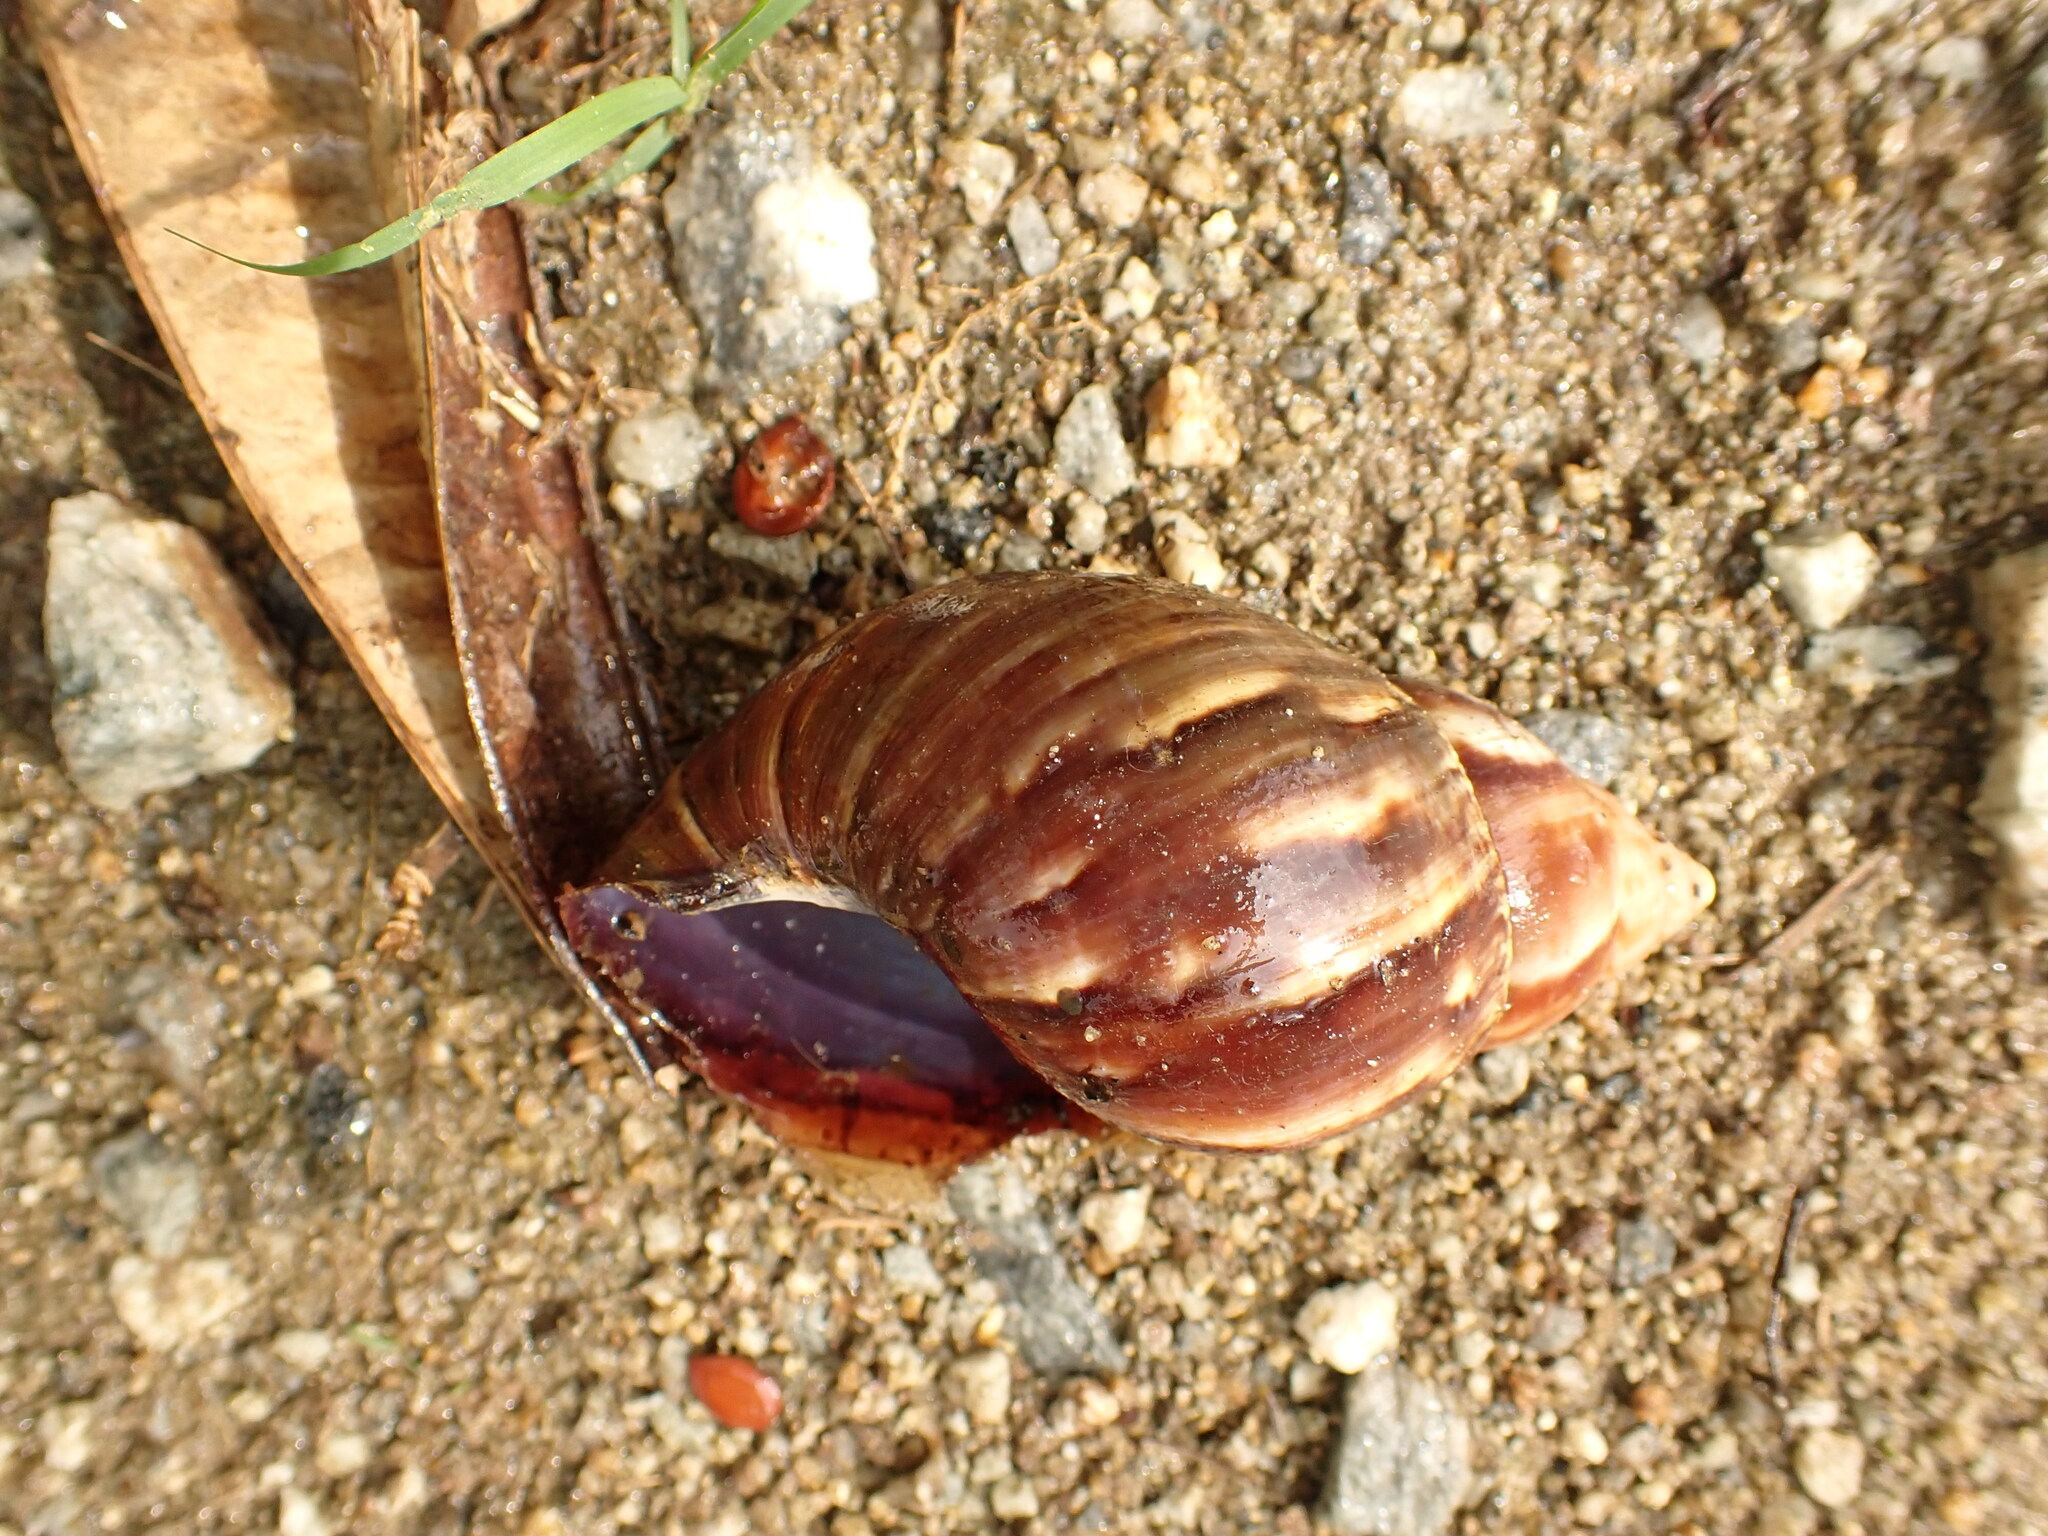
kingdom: Animalia
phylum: Mollusca
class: Gastropoda
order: Stylommatophora
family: Achatinidae
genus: Lissachatina
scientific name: Lissachatina fulica
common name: Giant african snail
